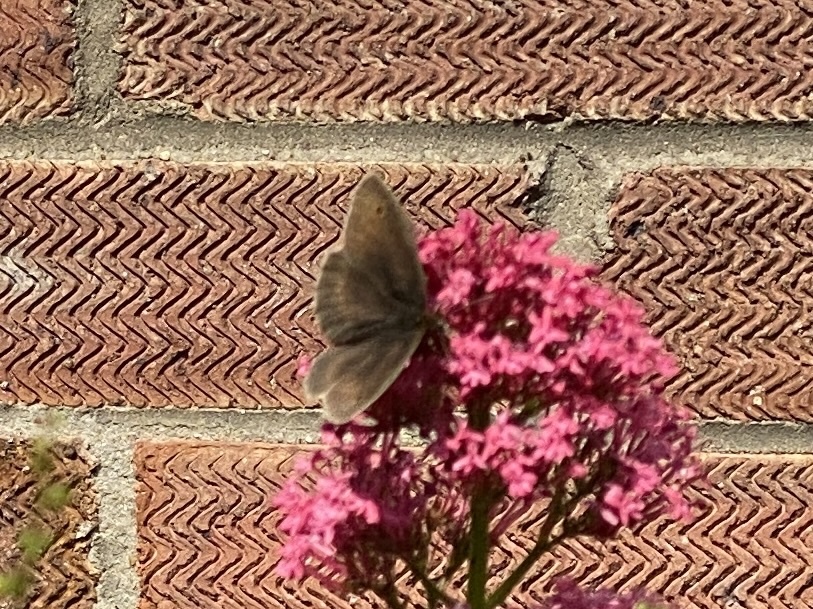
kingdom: Animalia
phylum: Arthropoda
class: Insecta
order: Lepidoptera
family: Nymphalidae
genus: Maniola
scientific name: Maniola jurtina
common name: Meadow brown
